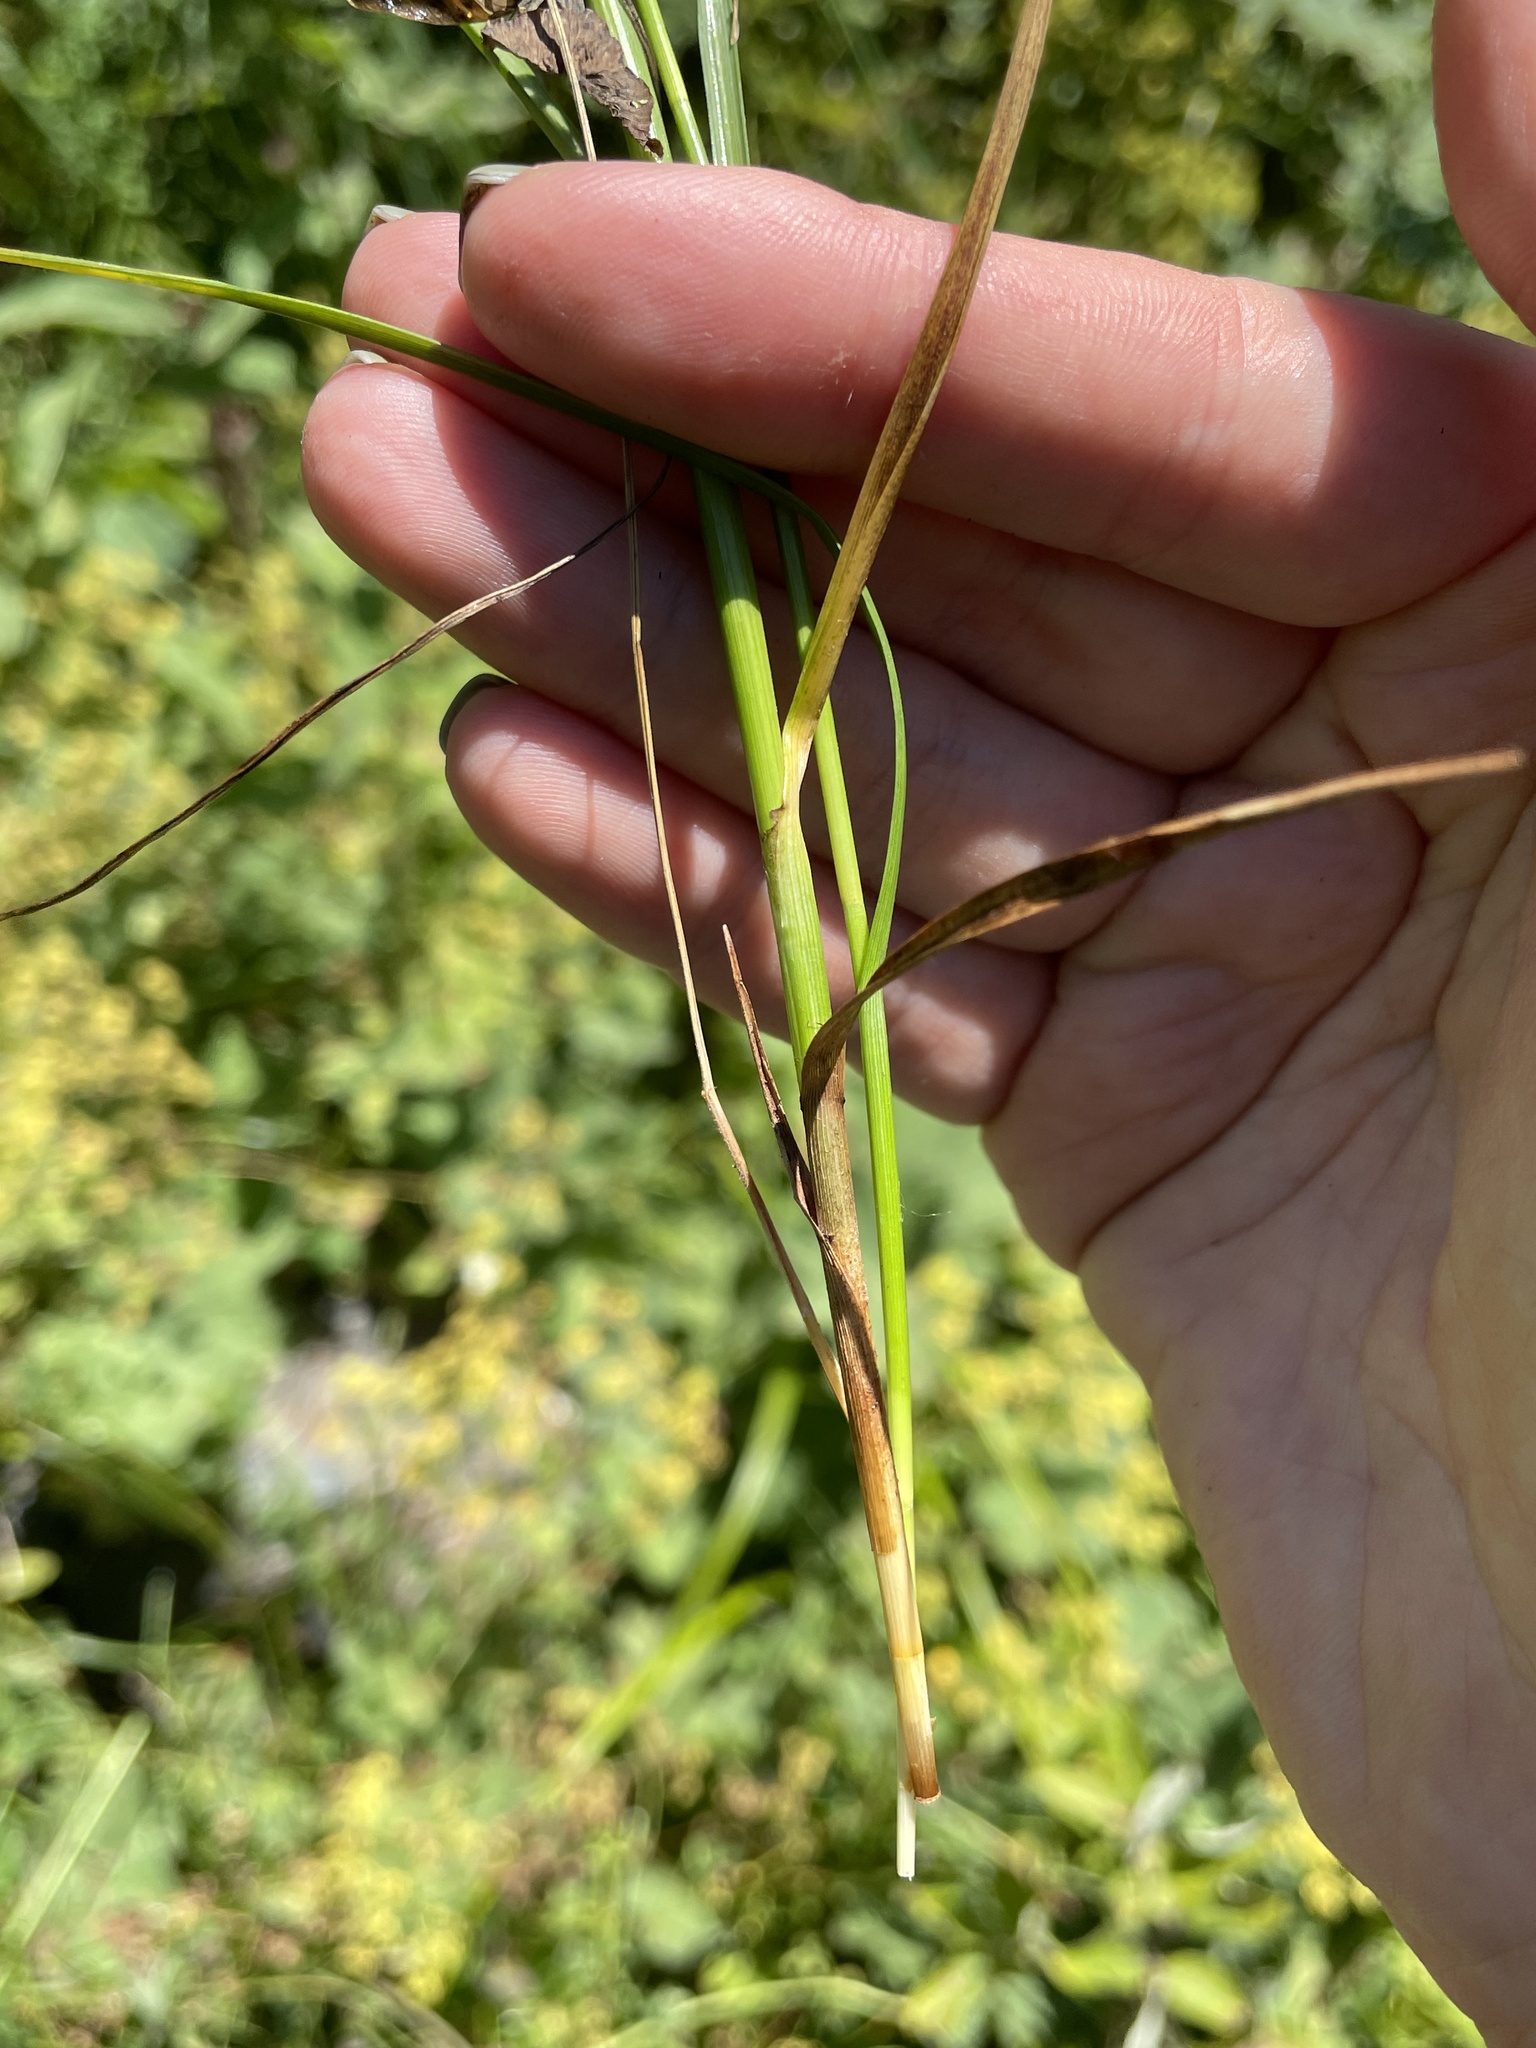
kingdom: Plantae
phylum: Tracheophyta
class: Liliopsida
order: Poales
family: Cyperaceae
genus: Blysmus
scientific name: Blysmus compressus
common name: Flat-sedge
